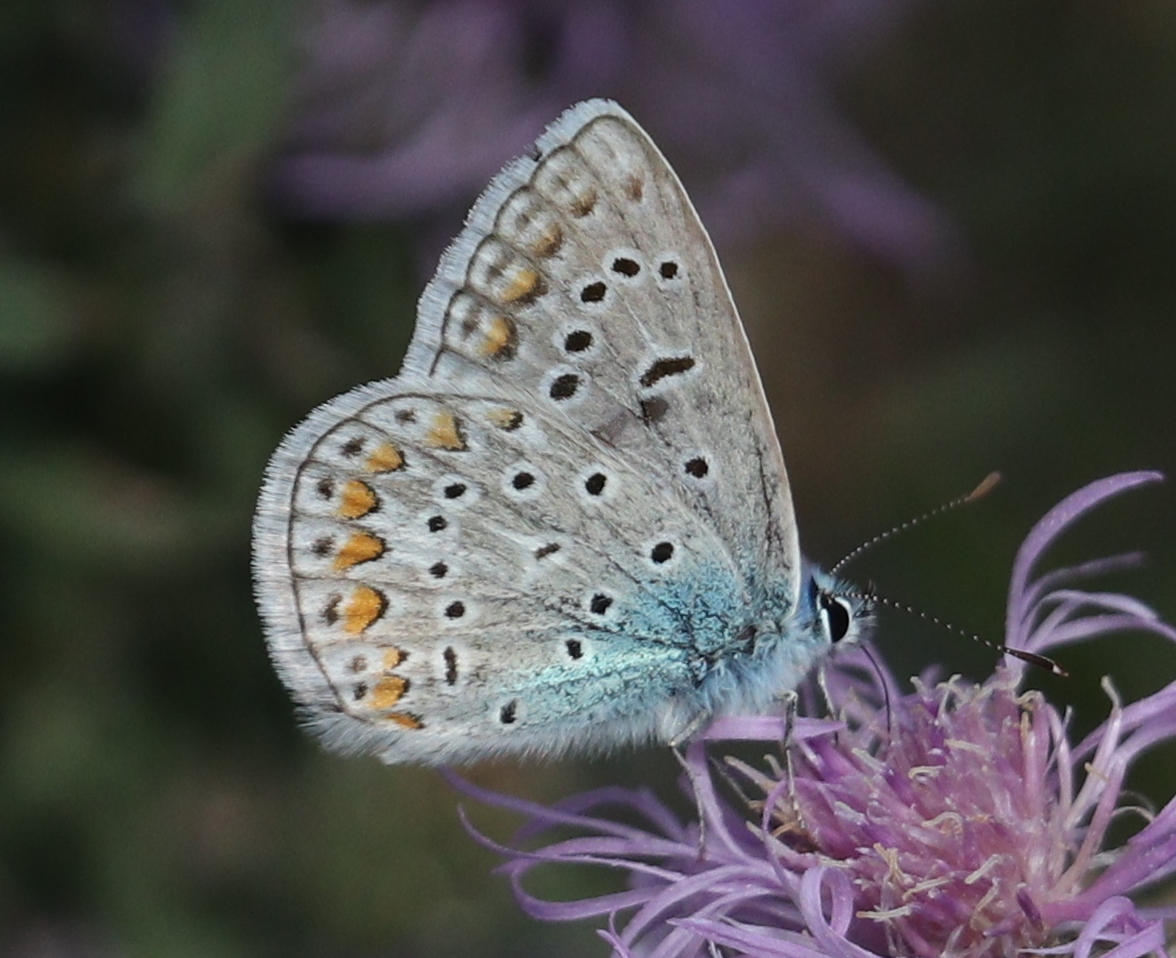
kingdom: Animalia
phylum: Arthropoda
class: Insecta
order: Lepidoptera
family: Lycaenidae
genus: Polyommatus
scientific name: Polyommatus icarus
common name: Common blue
